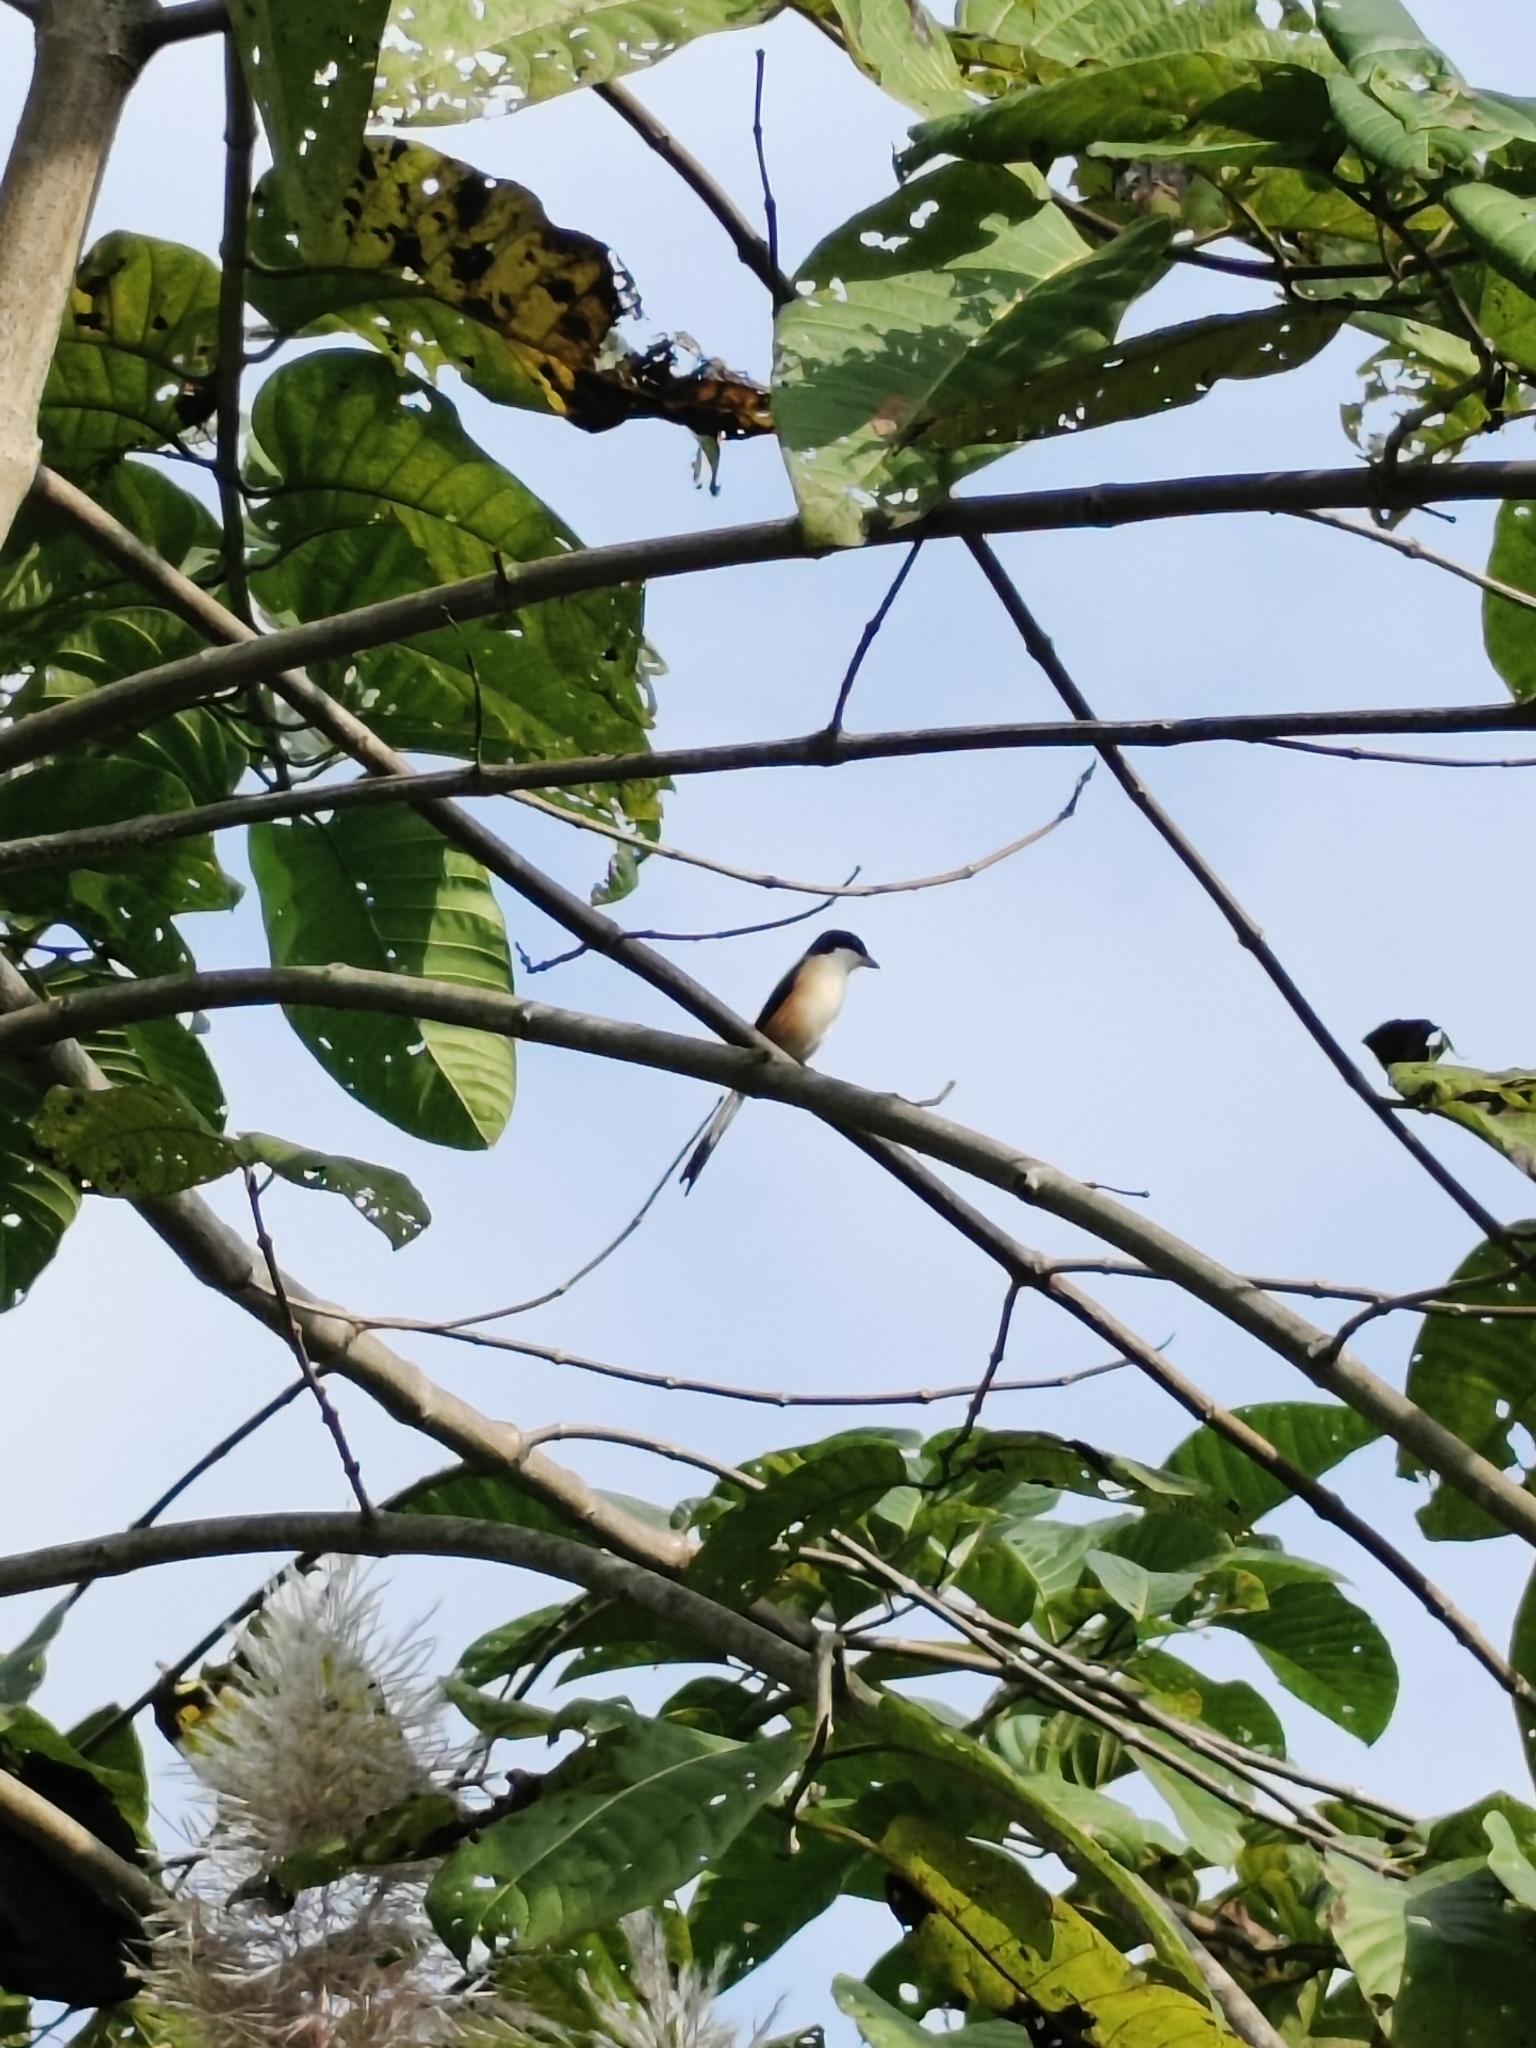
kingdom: Animalia
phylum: Chordata
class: Aves
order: Passeriformes
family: Laniidae
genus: Lanius
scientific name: Lanius tephronotus
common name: Grey-backed shrike
